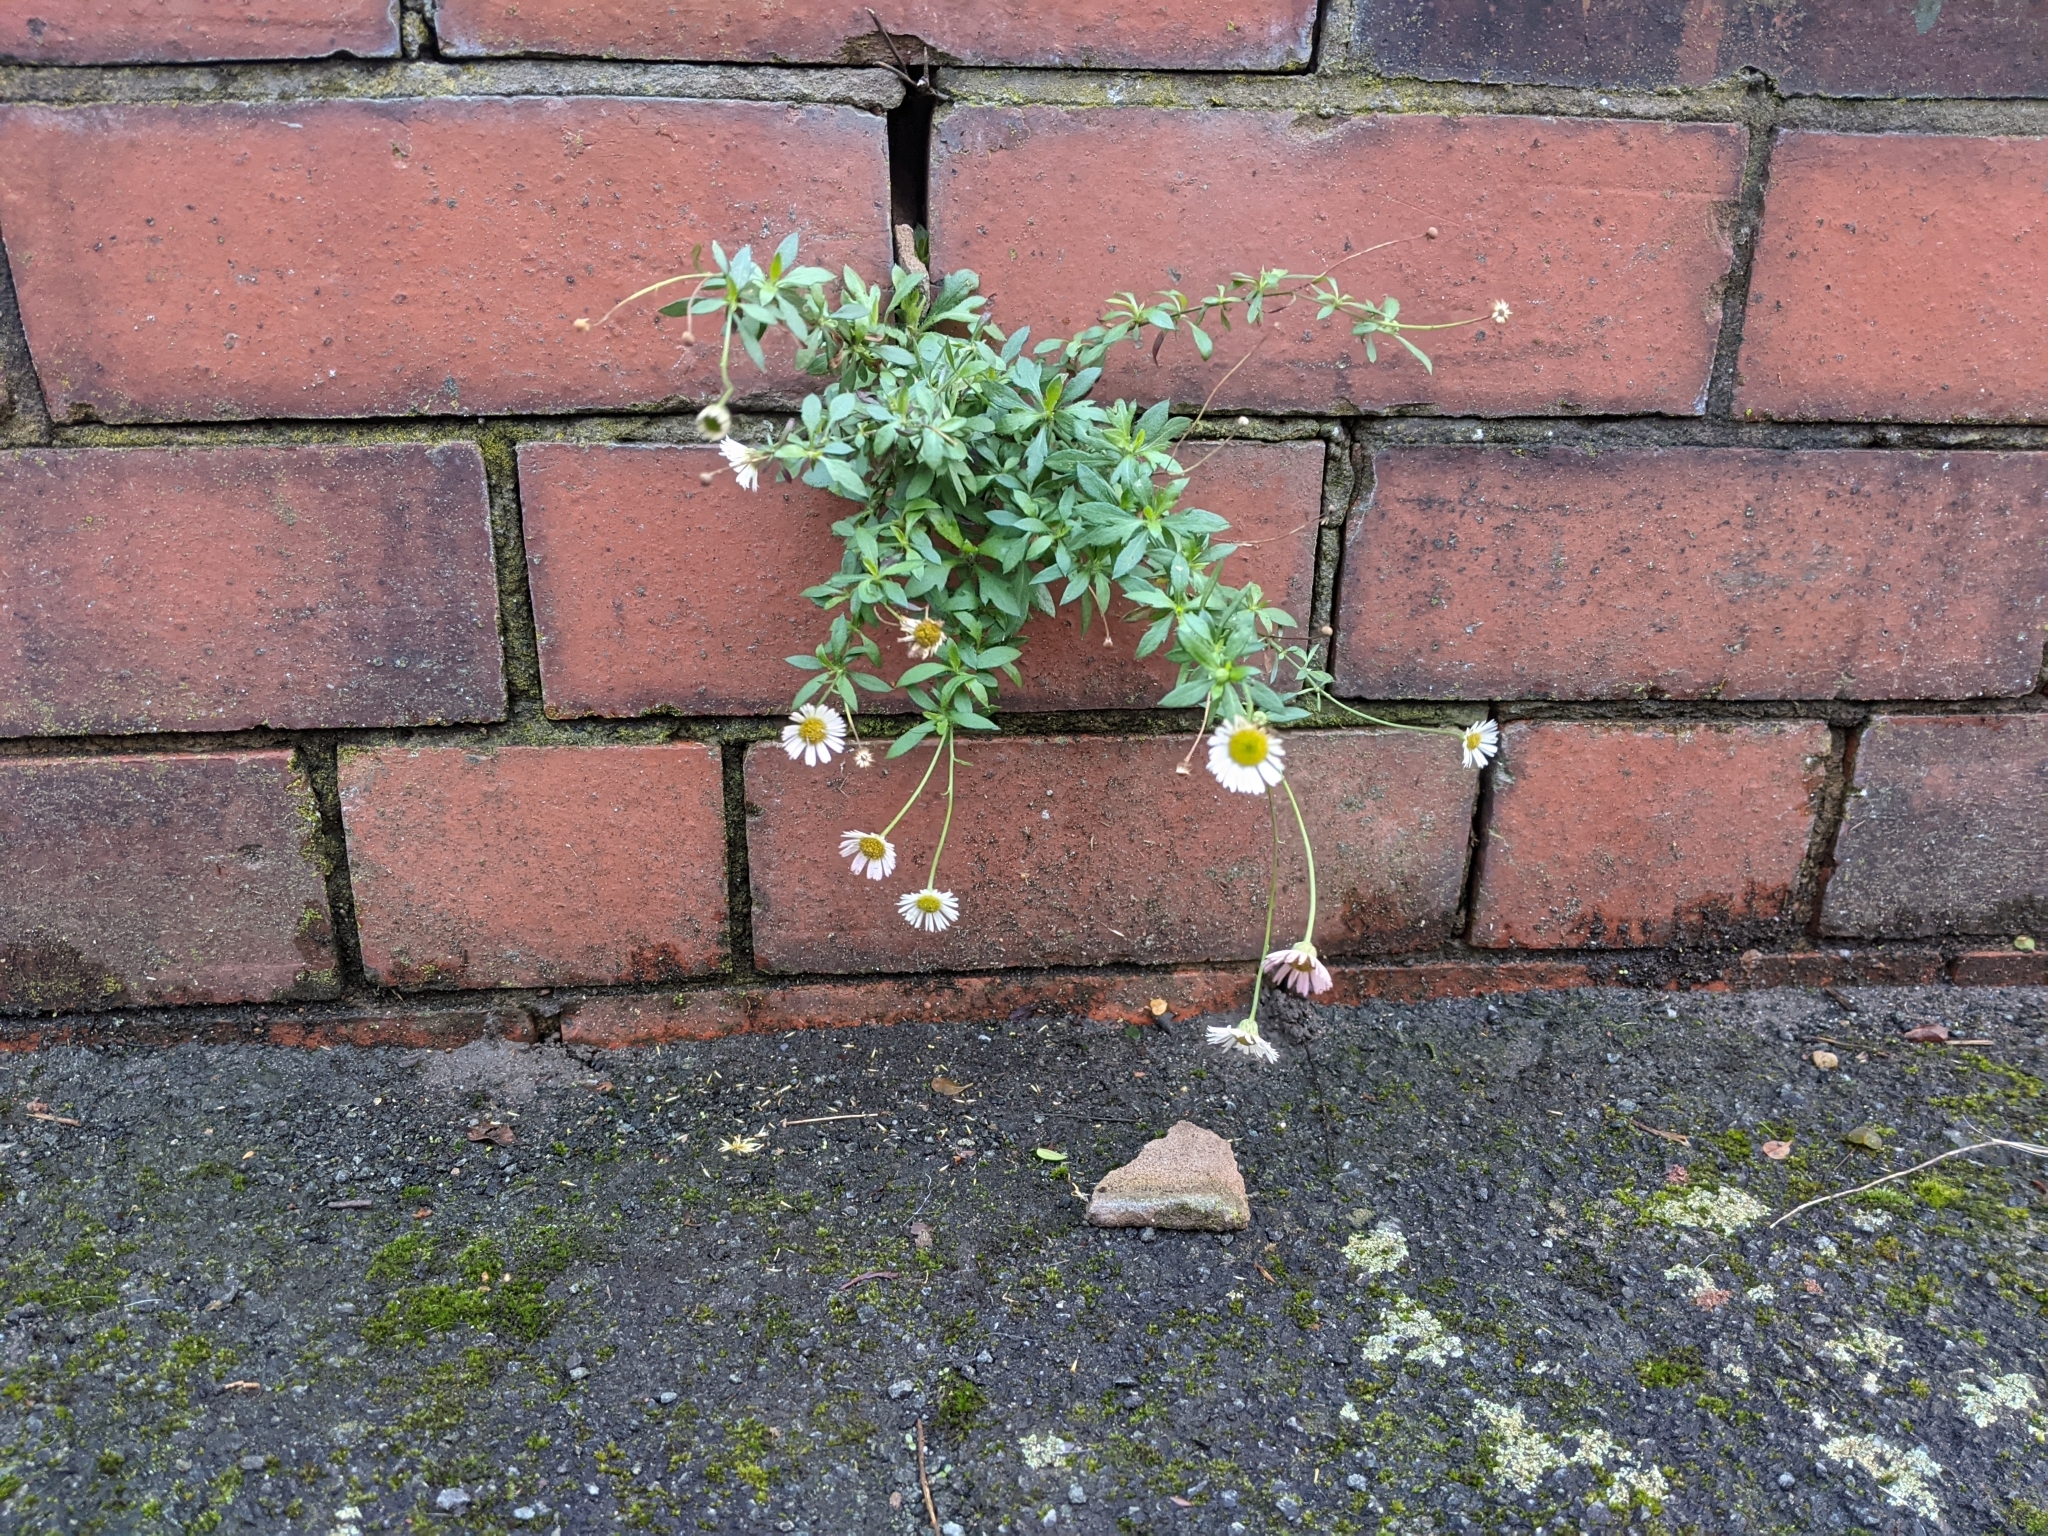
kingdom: Plantae
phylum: Tracheophyta
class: Magnoliopsida
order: Asterales
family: Asteraceae
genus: Erigeron
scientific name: Erigeron karvinskianus
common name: Mexican fleabane
